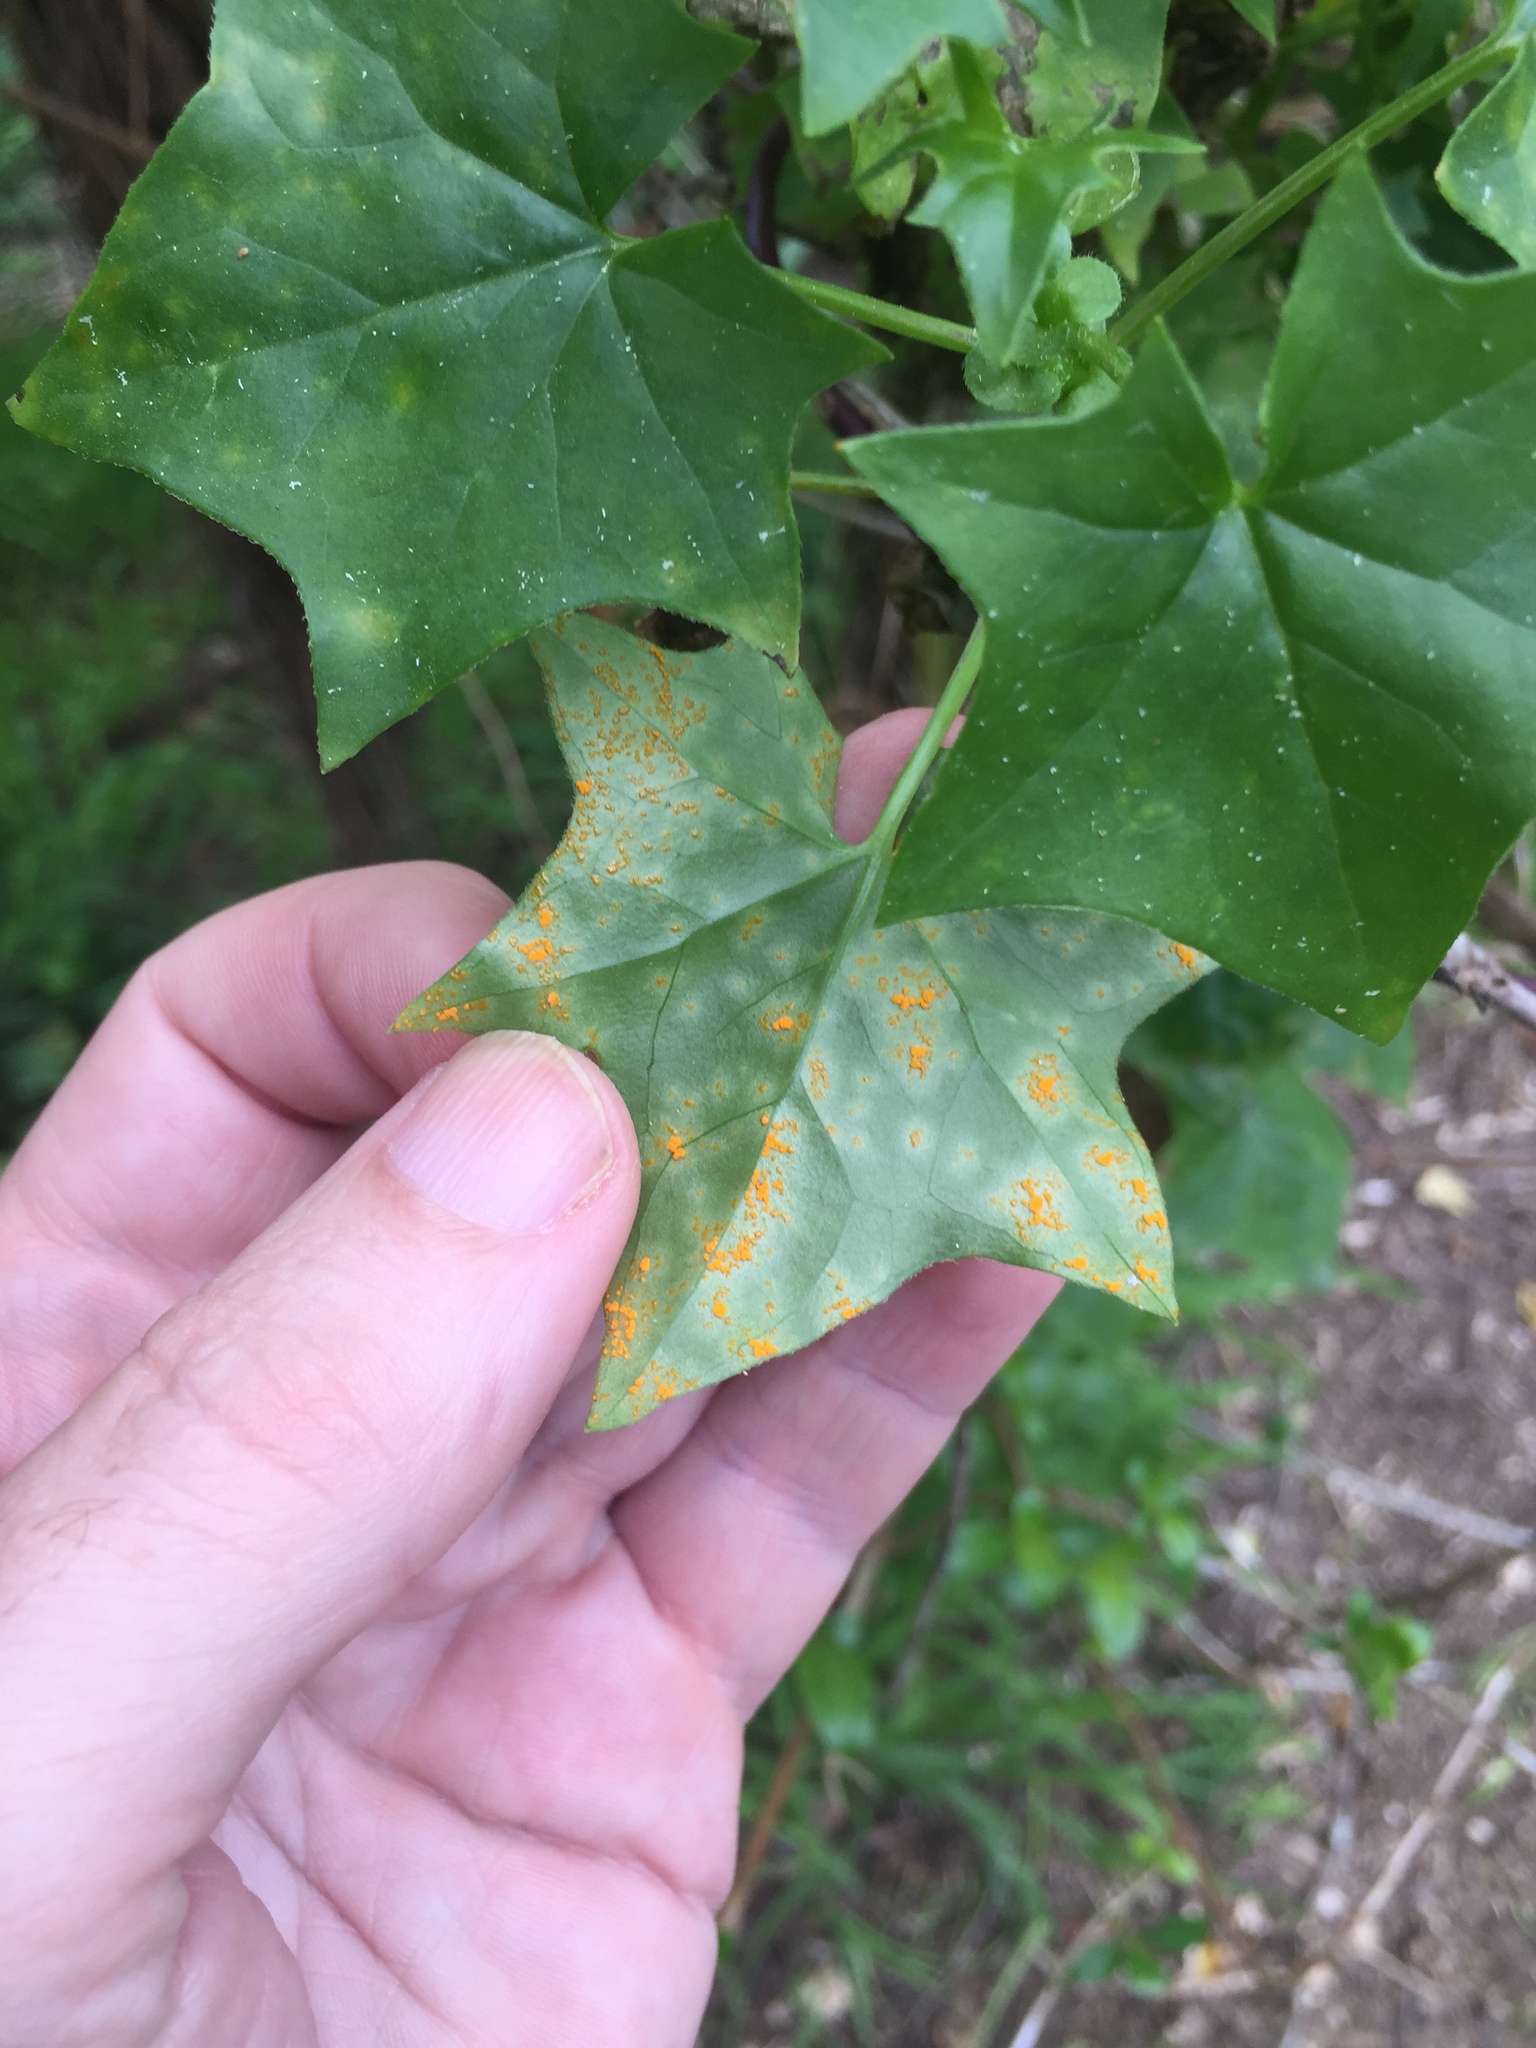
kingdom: Plantae
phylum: Tracheophyta
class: Magnoliopsida
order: Asterales
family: Asteraceae
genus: Delairea
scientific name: Delairea odorata
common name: Cape-ivy
